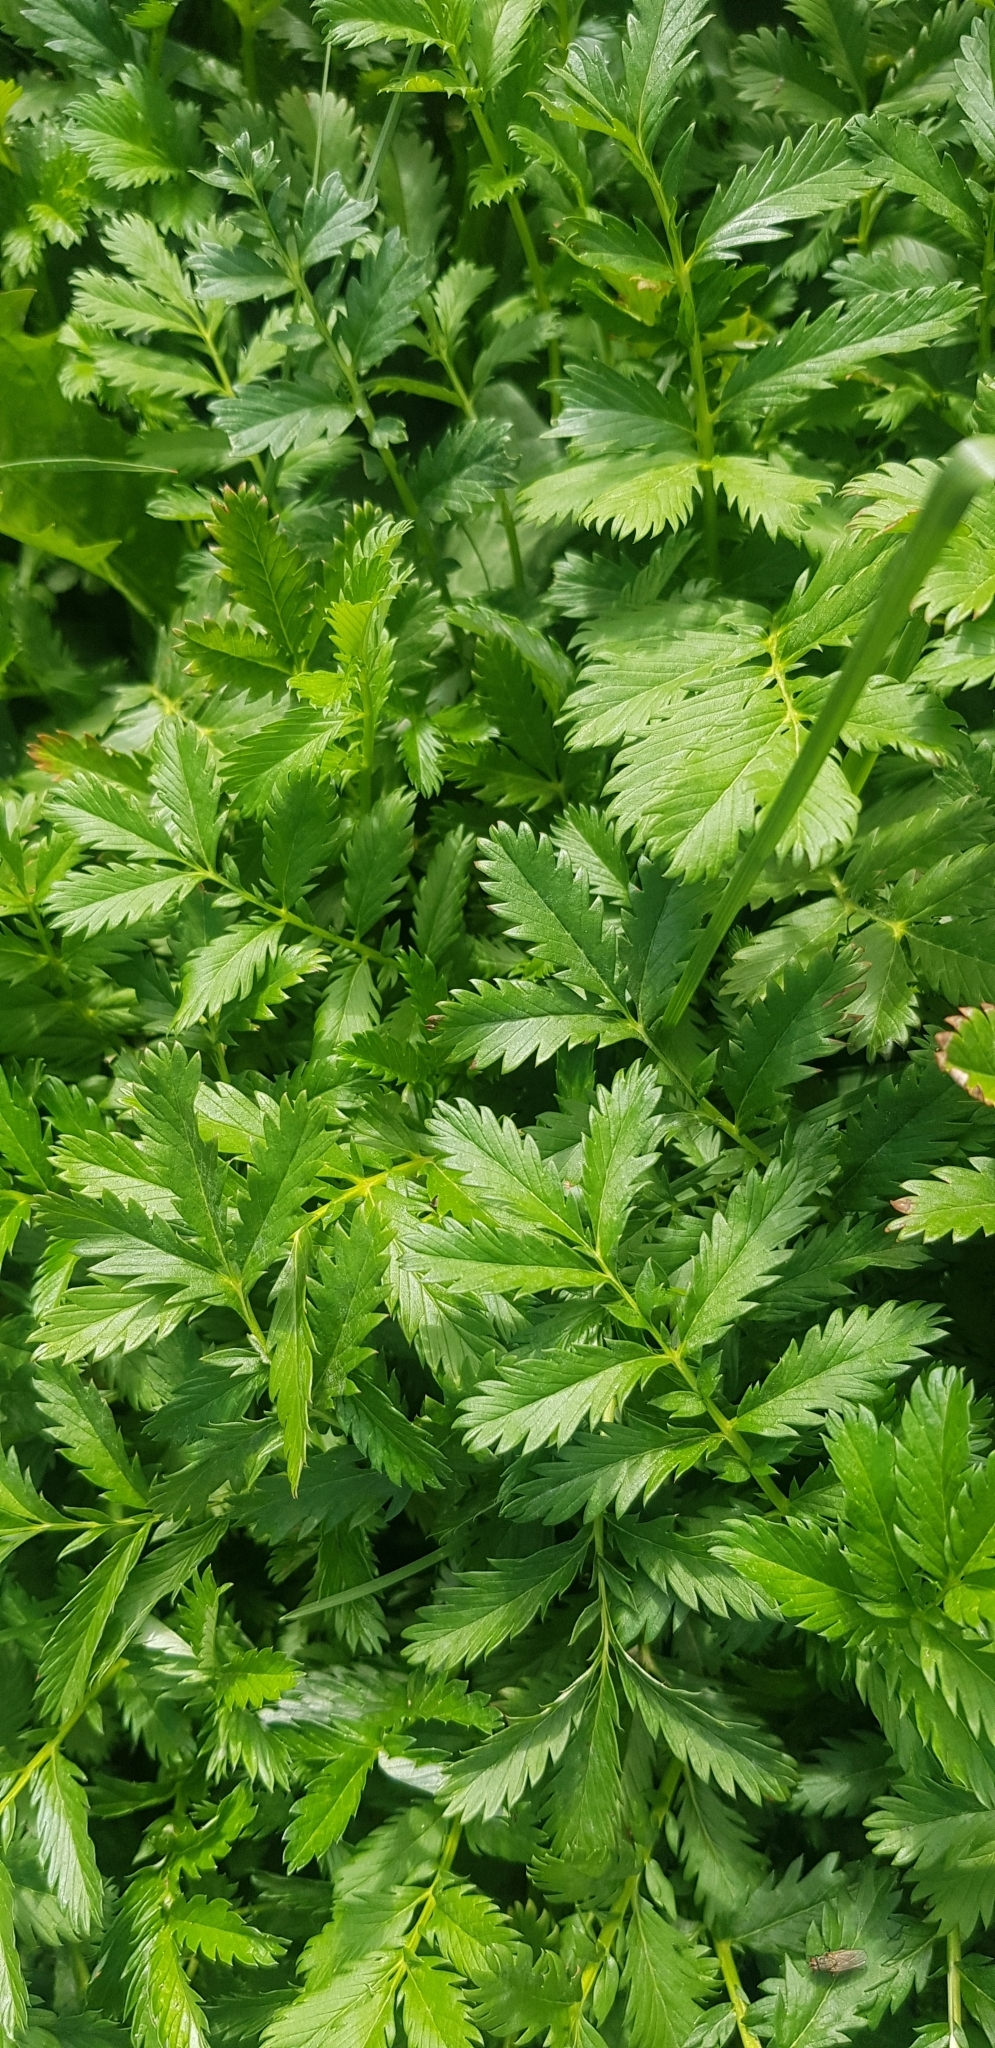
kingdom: Plantae
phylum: Tracheophyta
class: Magnoliopsida
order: Rosales
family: Rosaceae
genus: Argentina
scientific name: Argentina anserina
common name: Common silverweed
